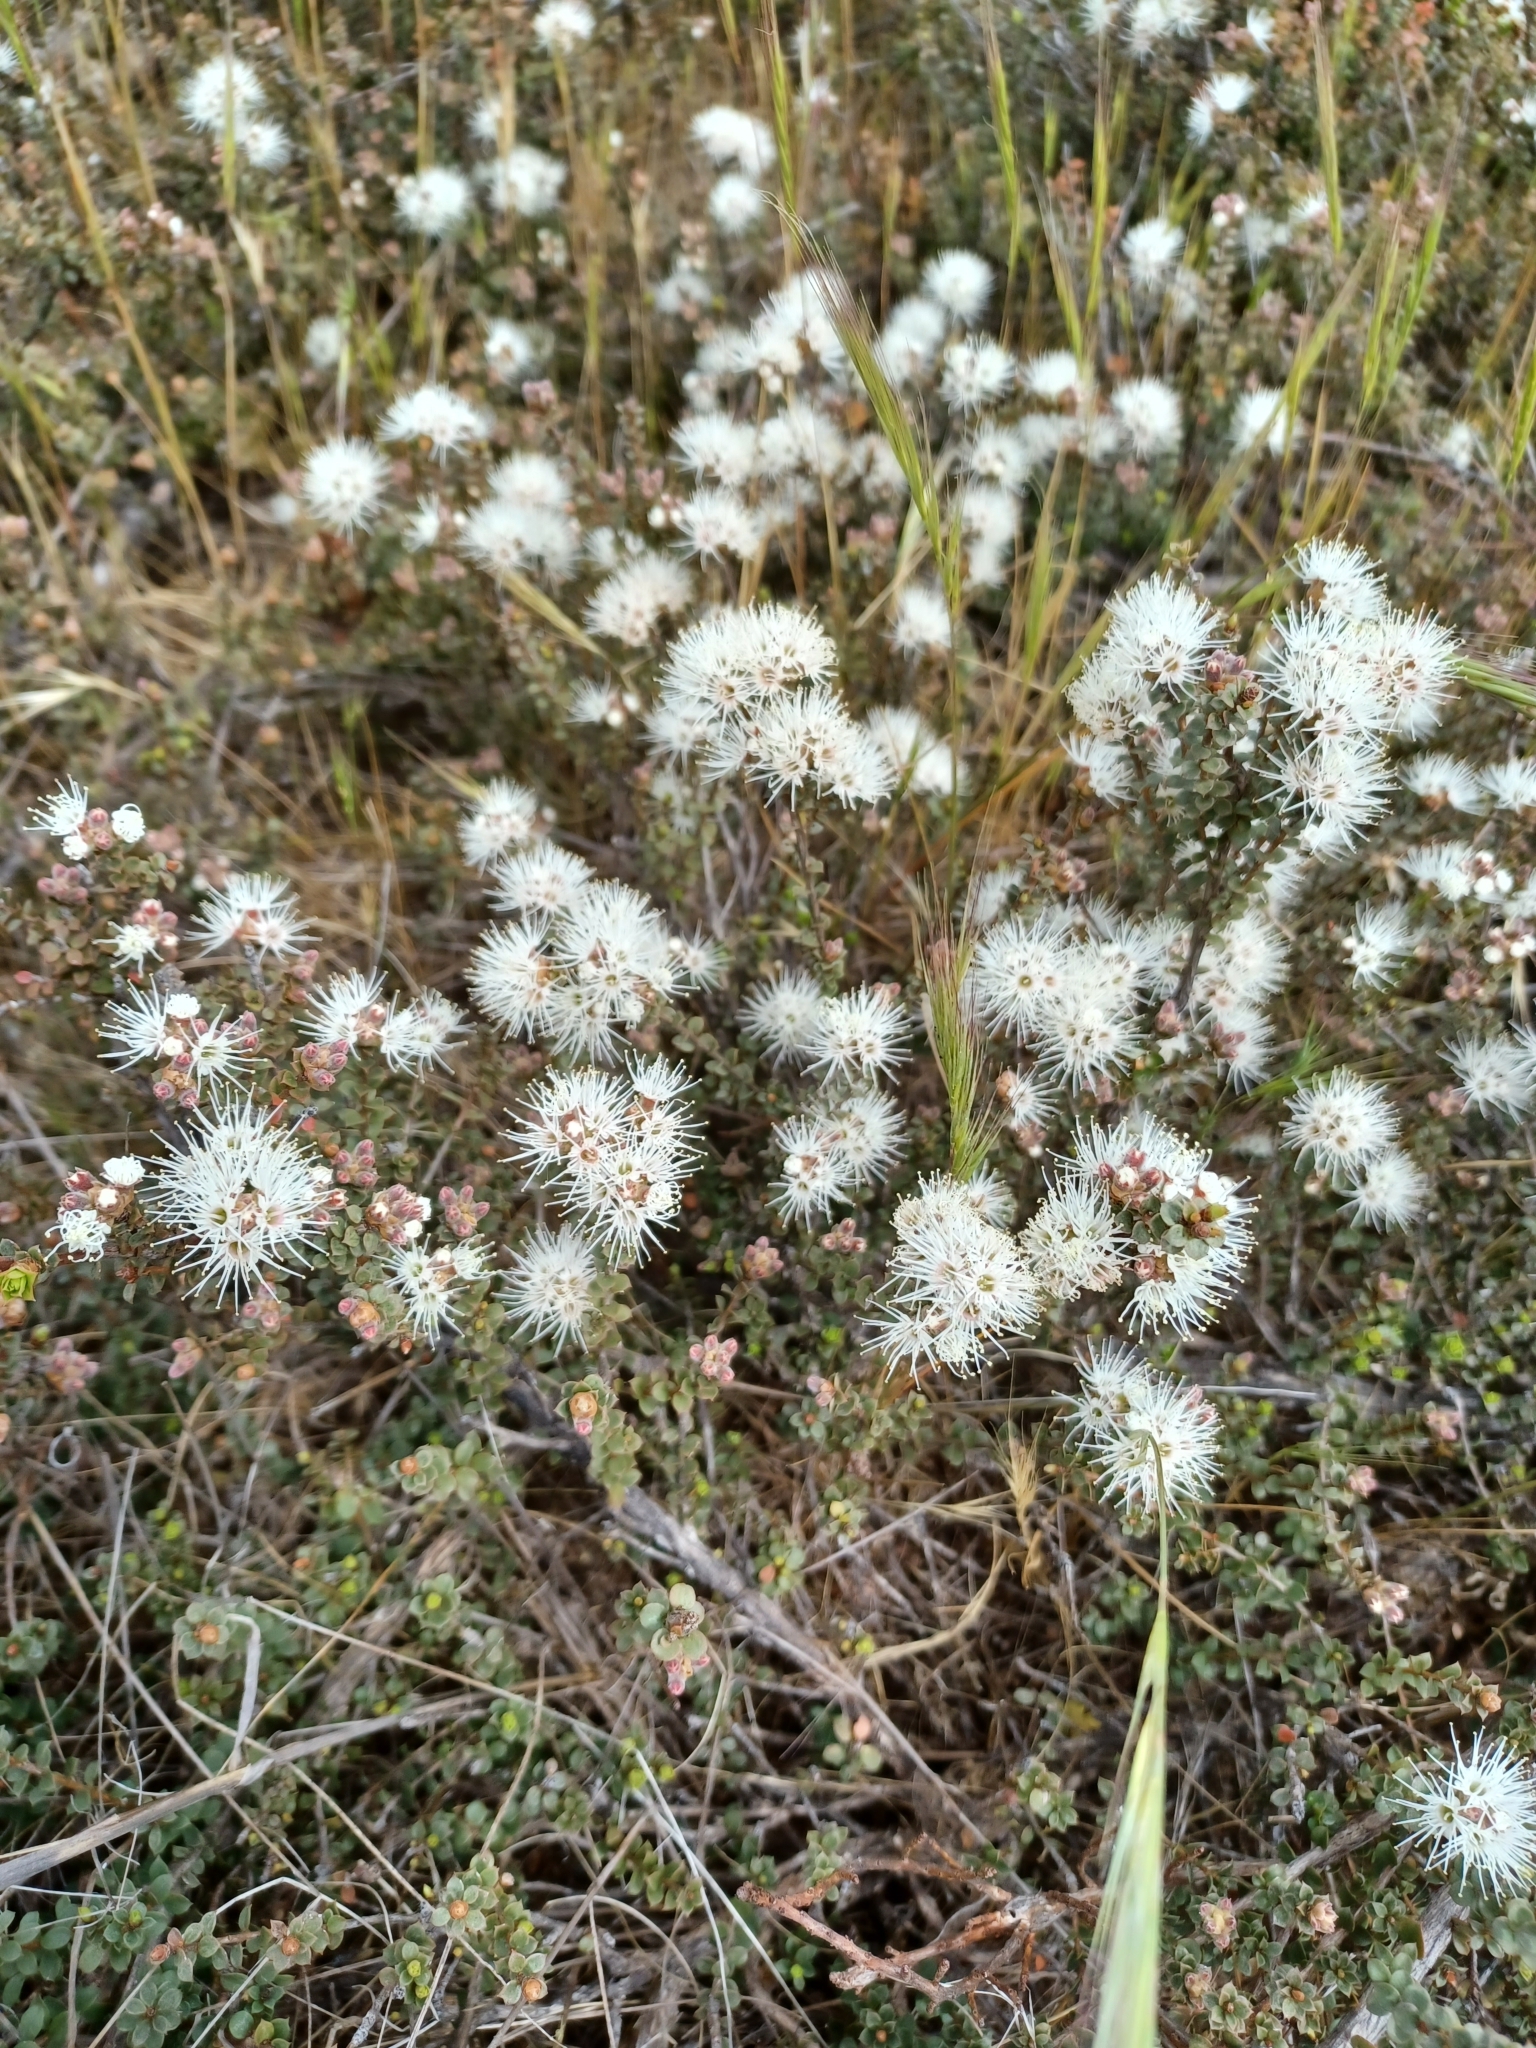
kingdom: Plantae
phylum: Tracheophyta
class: Magnoliopsida
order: Myrtales
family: Myrtaceae
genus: Kunzea
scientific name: Kunzea pomifera
